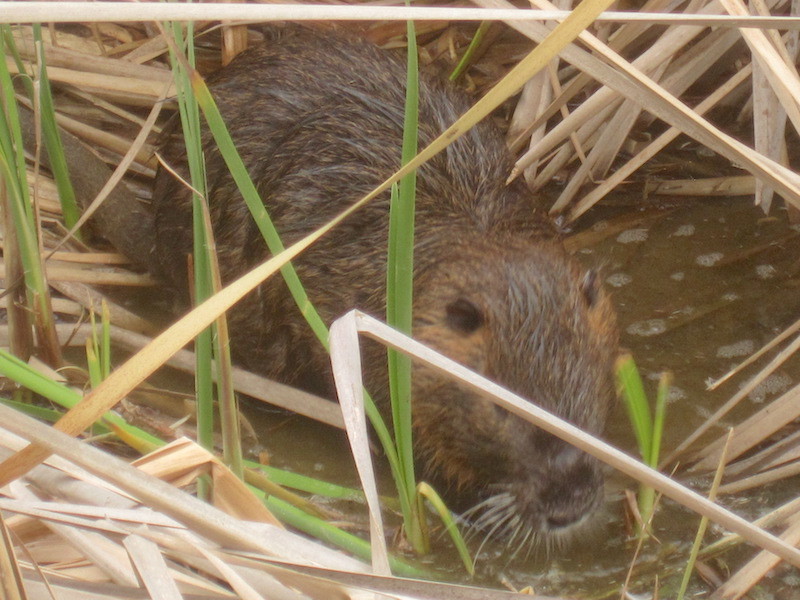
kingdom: Animalia
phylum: Chordata
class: Mammalia
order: Rodentia
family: Myocastoridae
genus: Myocastor
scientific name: Myocastor coypus
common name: Coypu
